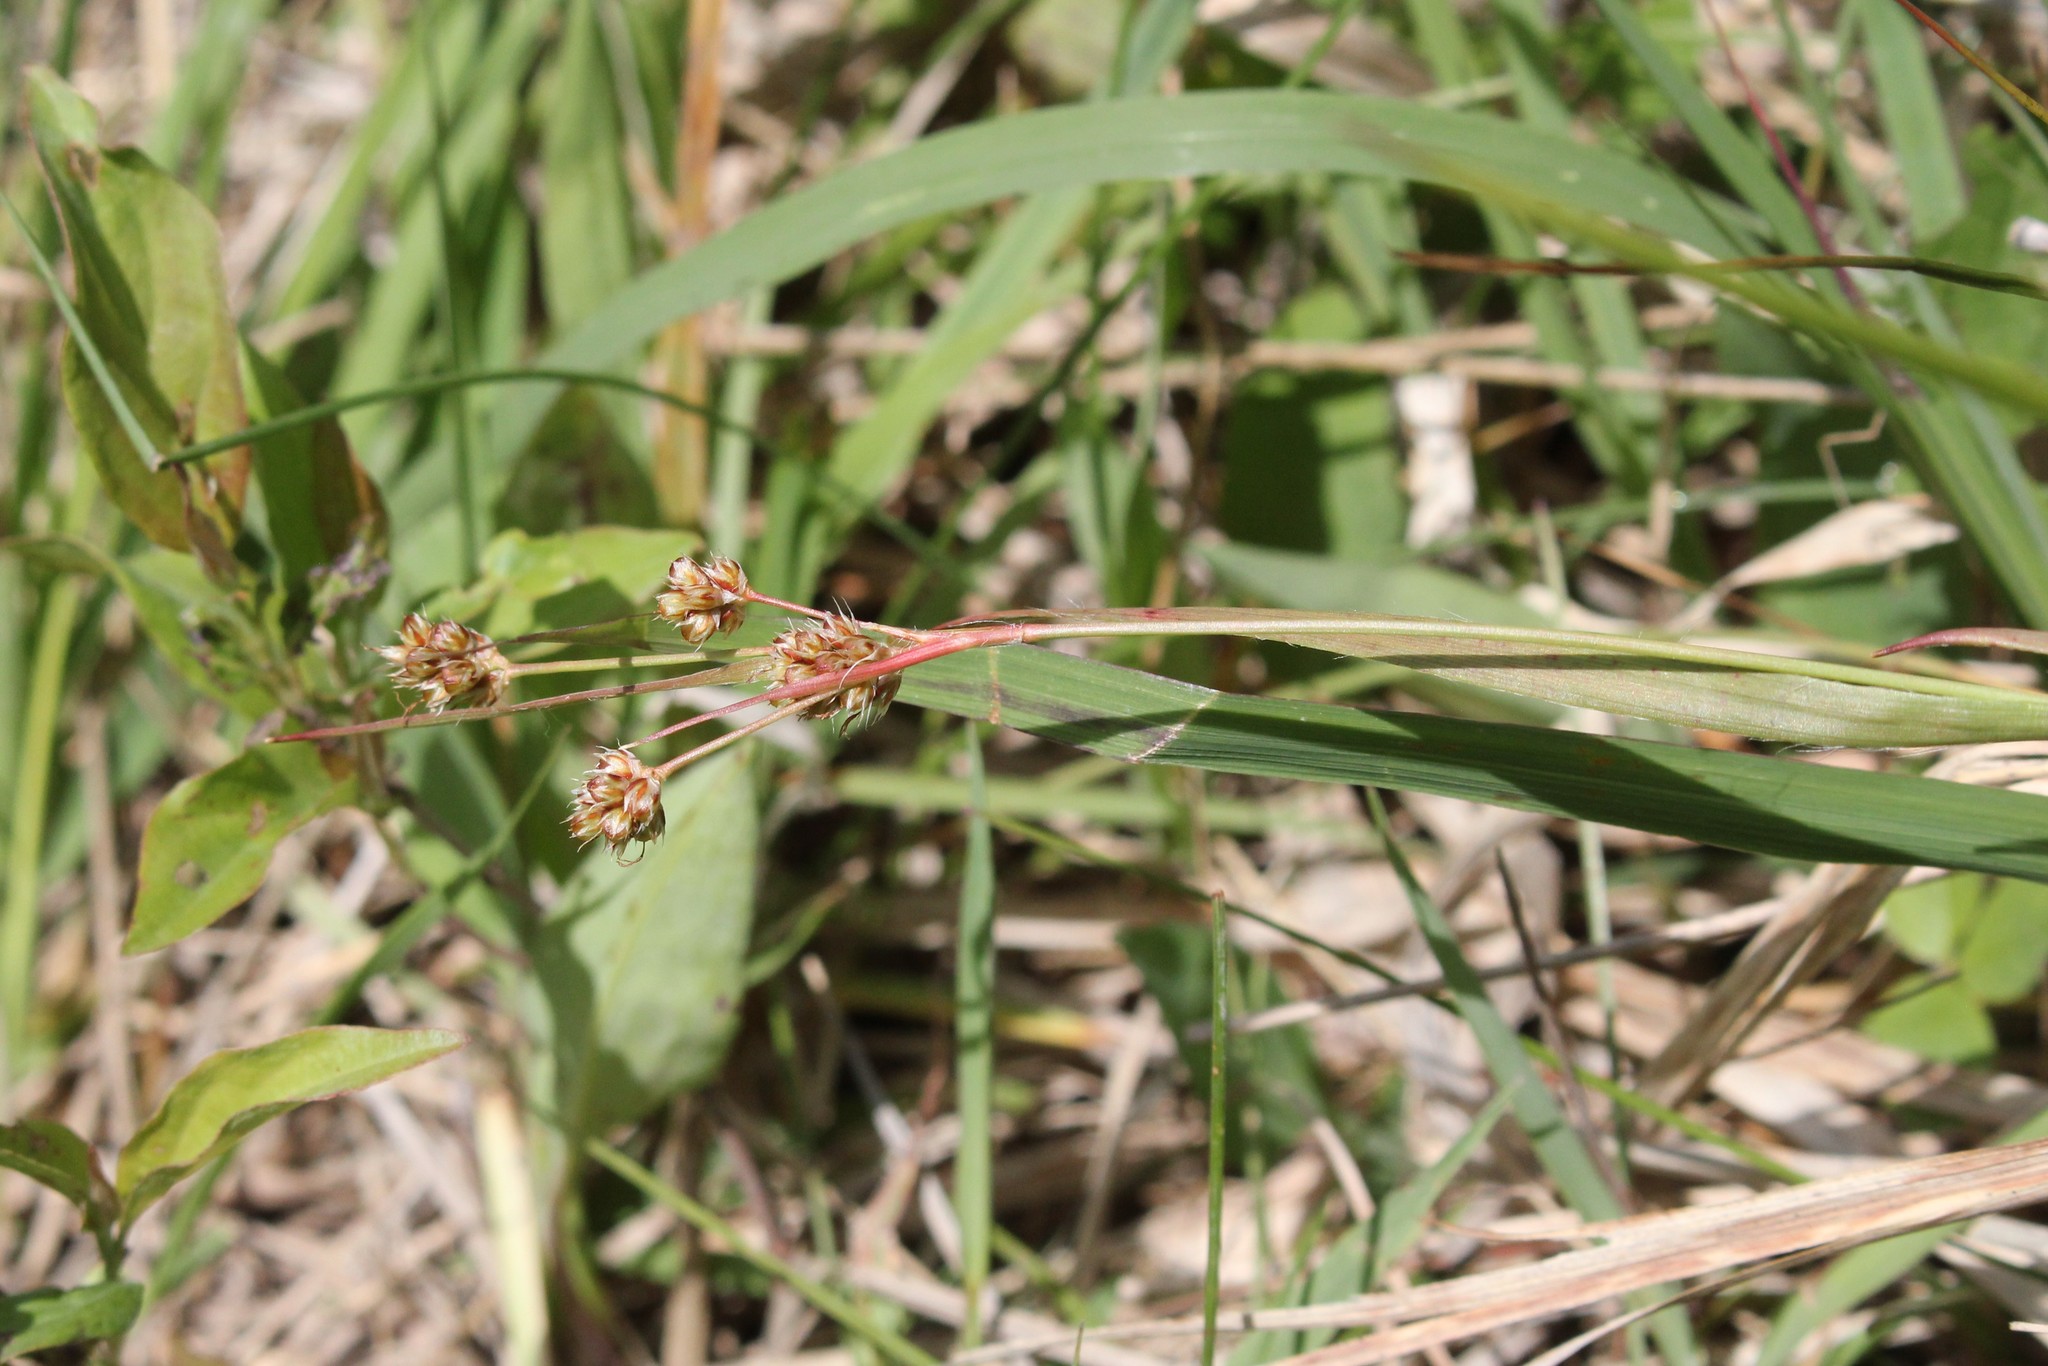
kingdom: Plantae
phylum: Tracheophyta
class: Liliopsida
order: Poales
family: Juncaceae
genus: Luzula
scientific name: Luzula multiflora
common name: Heath wood-rush
